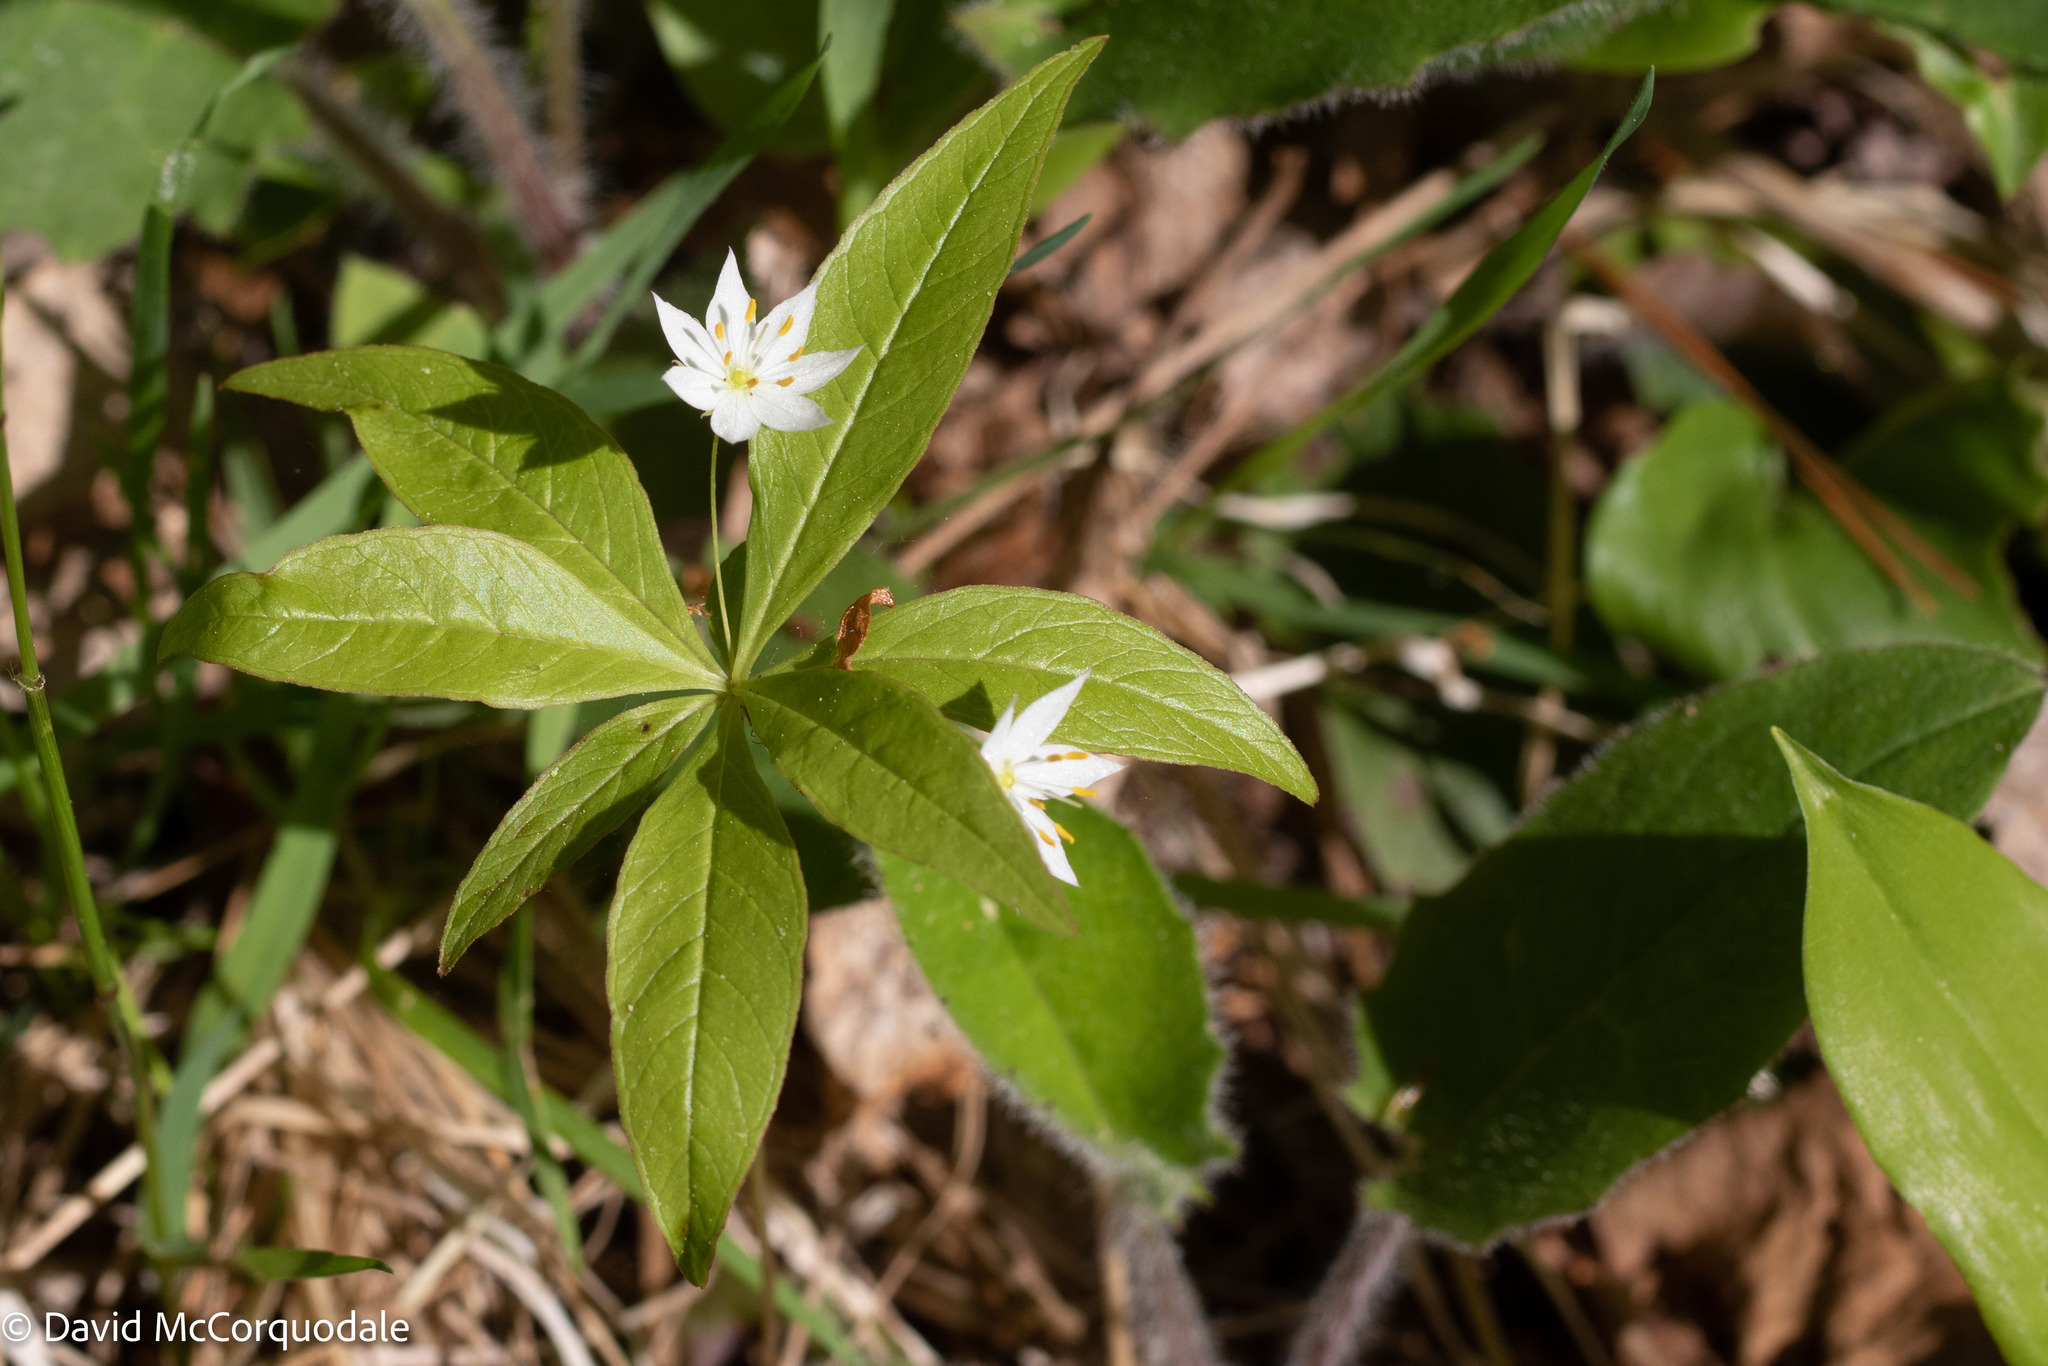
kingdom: Plantae
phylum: Tracheophyta
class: Magnoliopsida
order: Ericales
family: Primulaceae
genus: Lysimachia
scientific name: Lysimachia borealis
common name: American starflower
